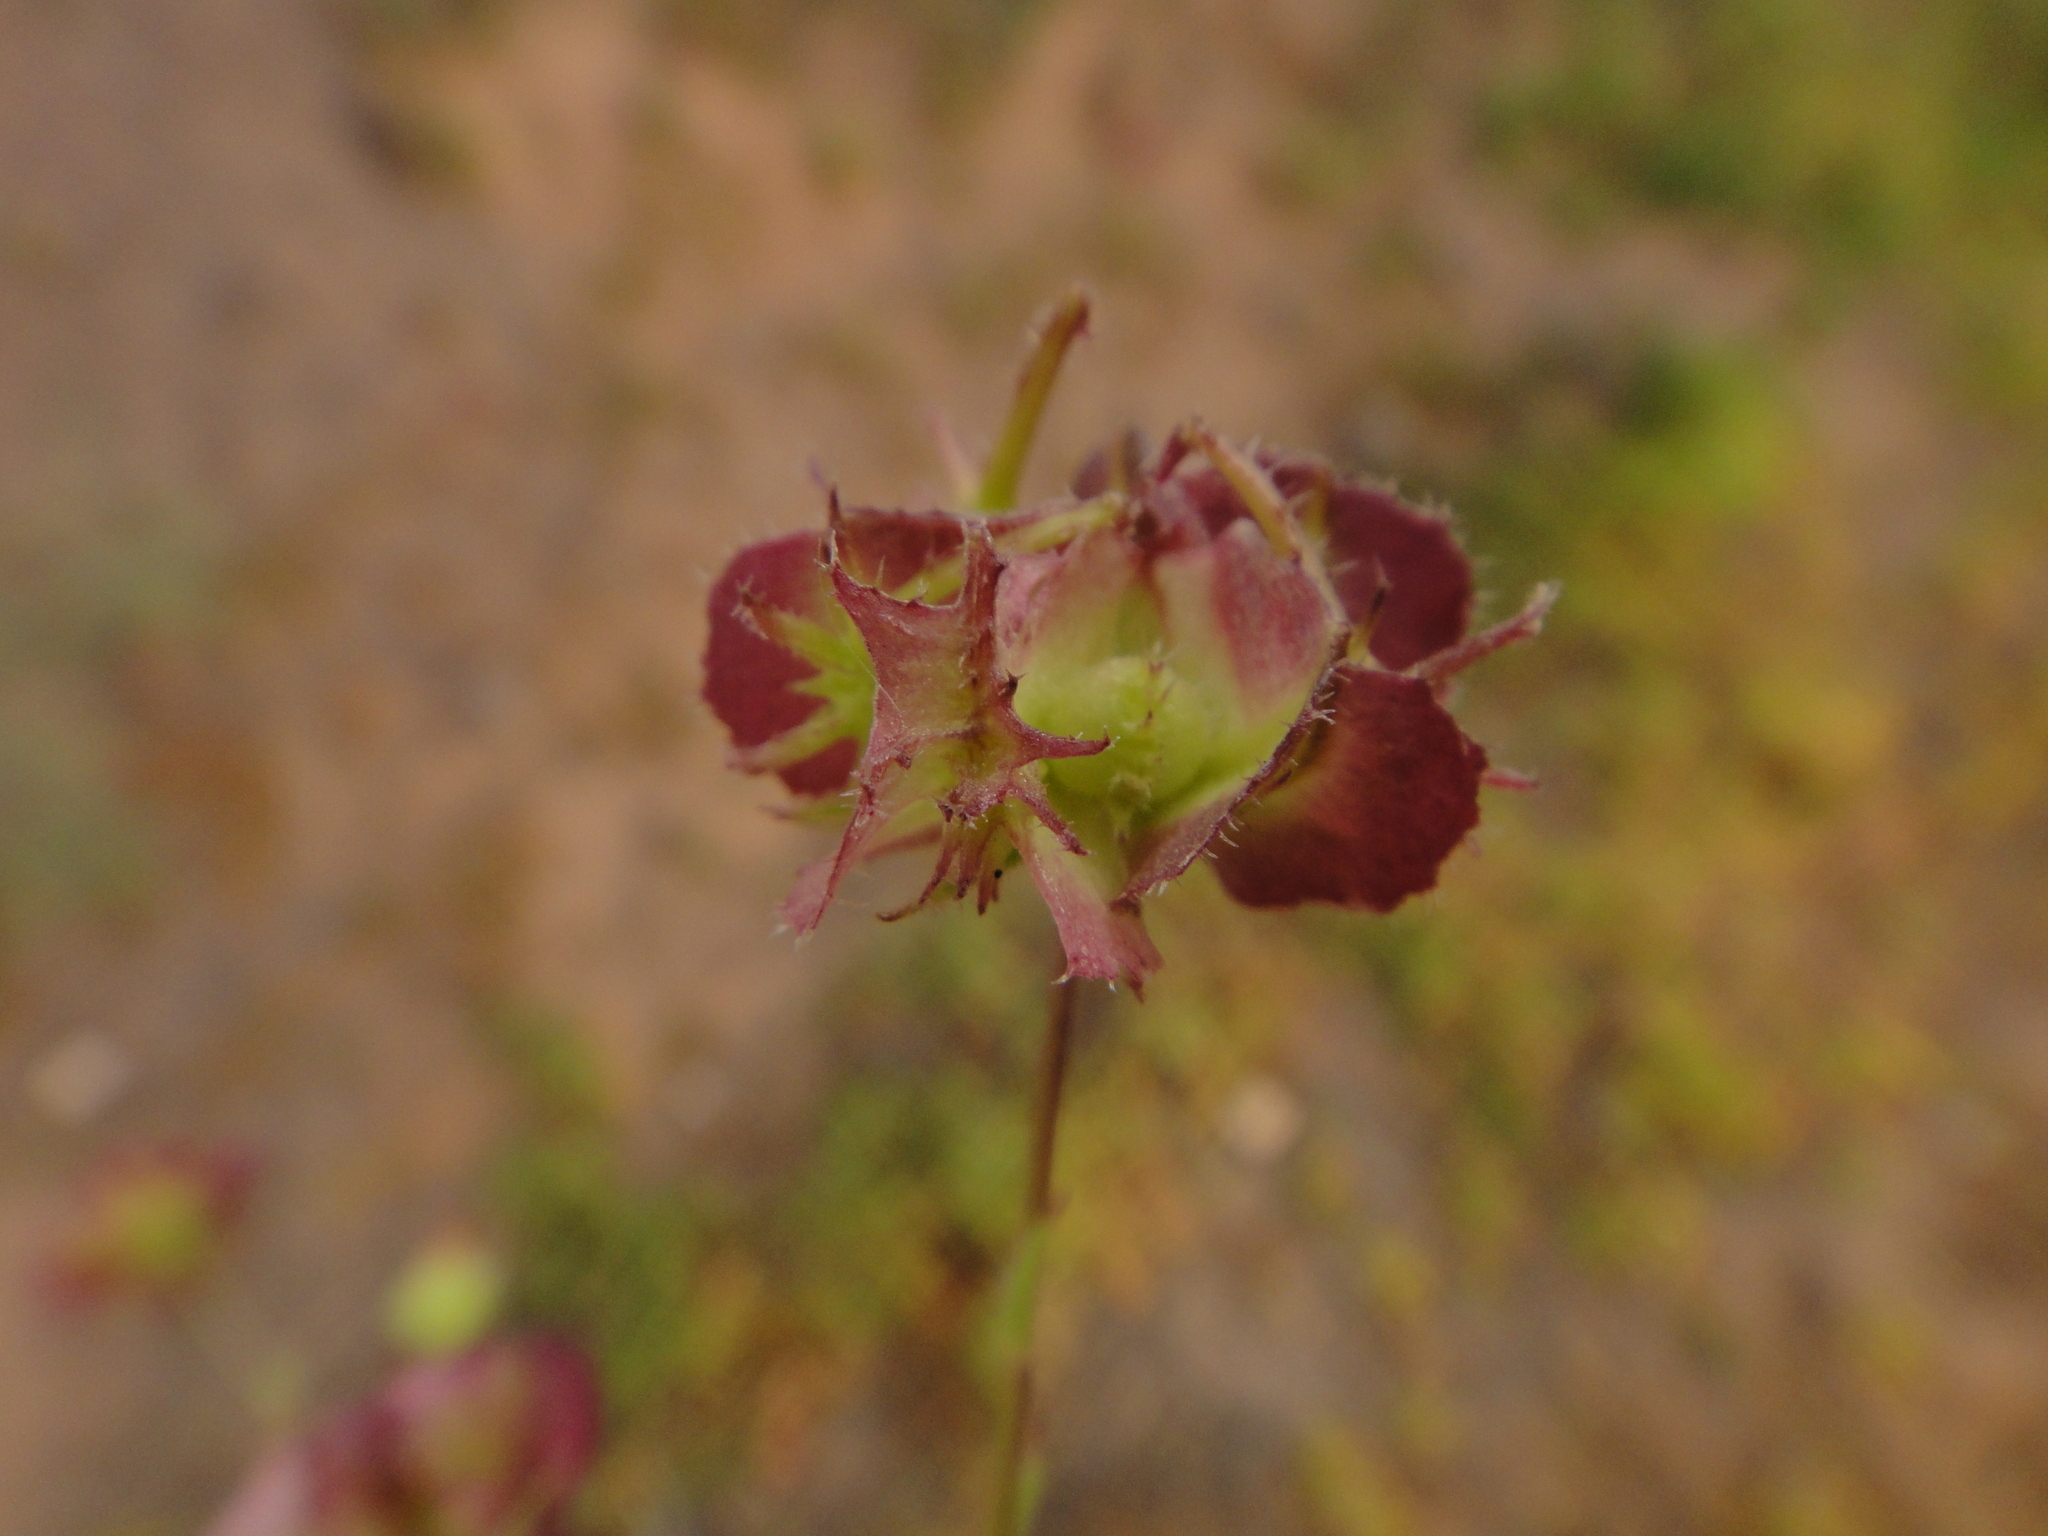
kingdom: Plantae
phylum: Tracheophyta
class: Magnoliopsida
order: Asterales
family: Asteraceae
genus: Calendula
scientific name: Calendula arvensis
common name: Field marigold
